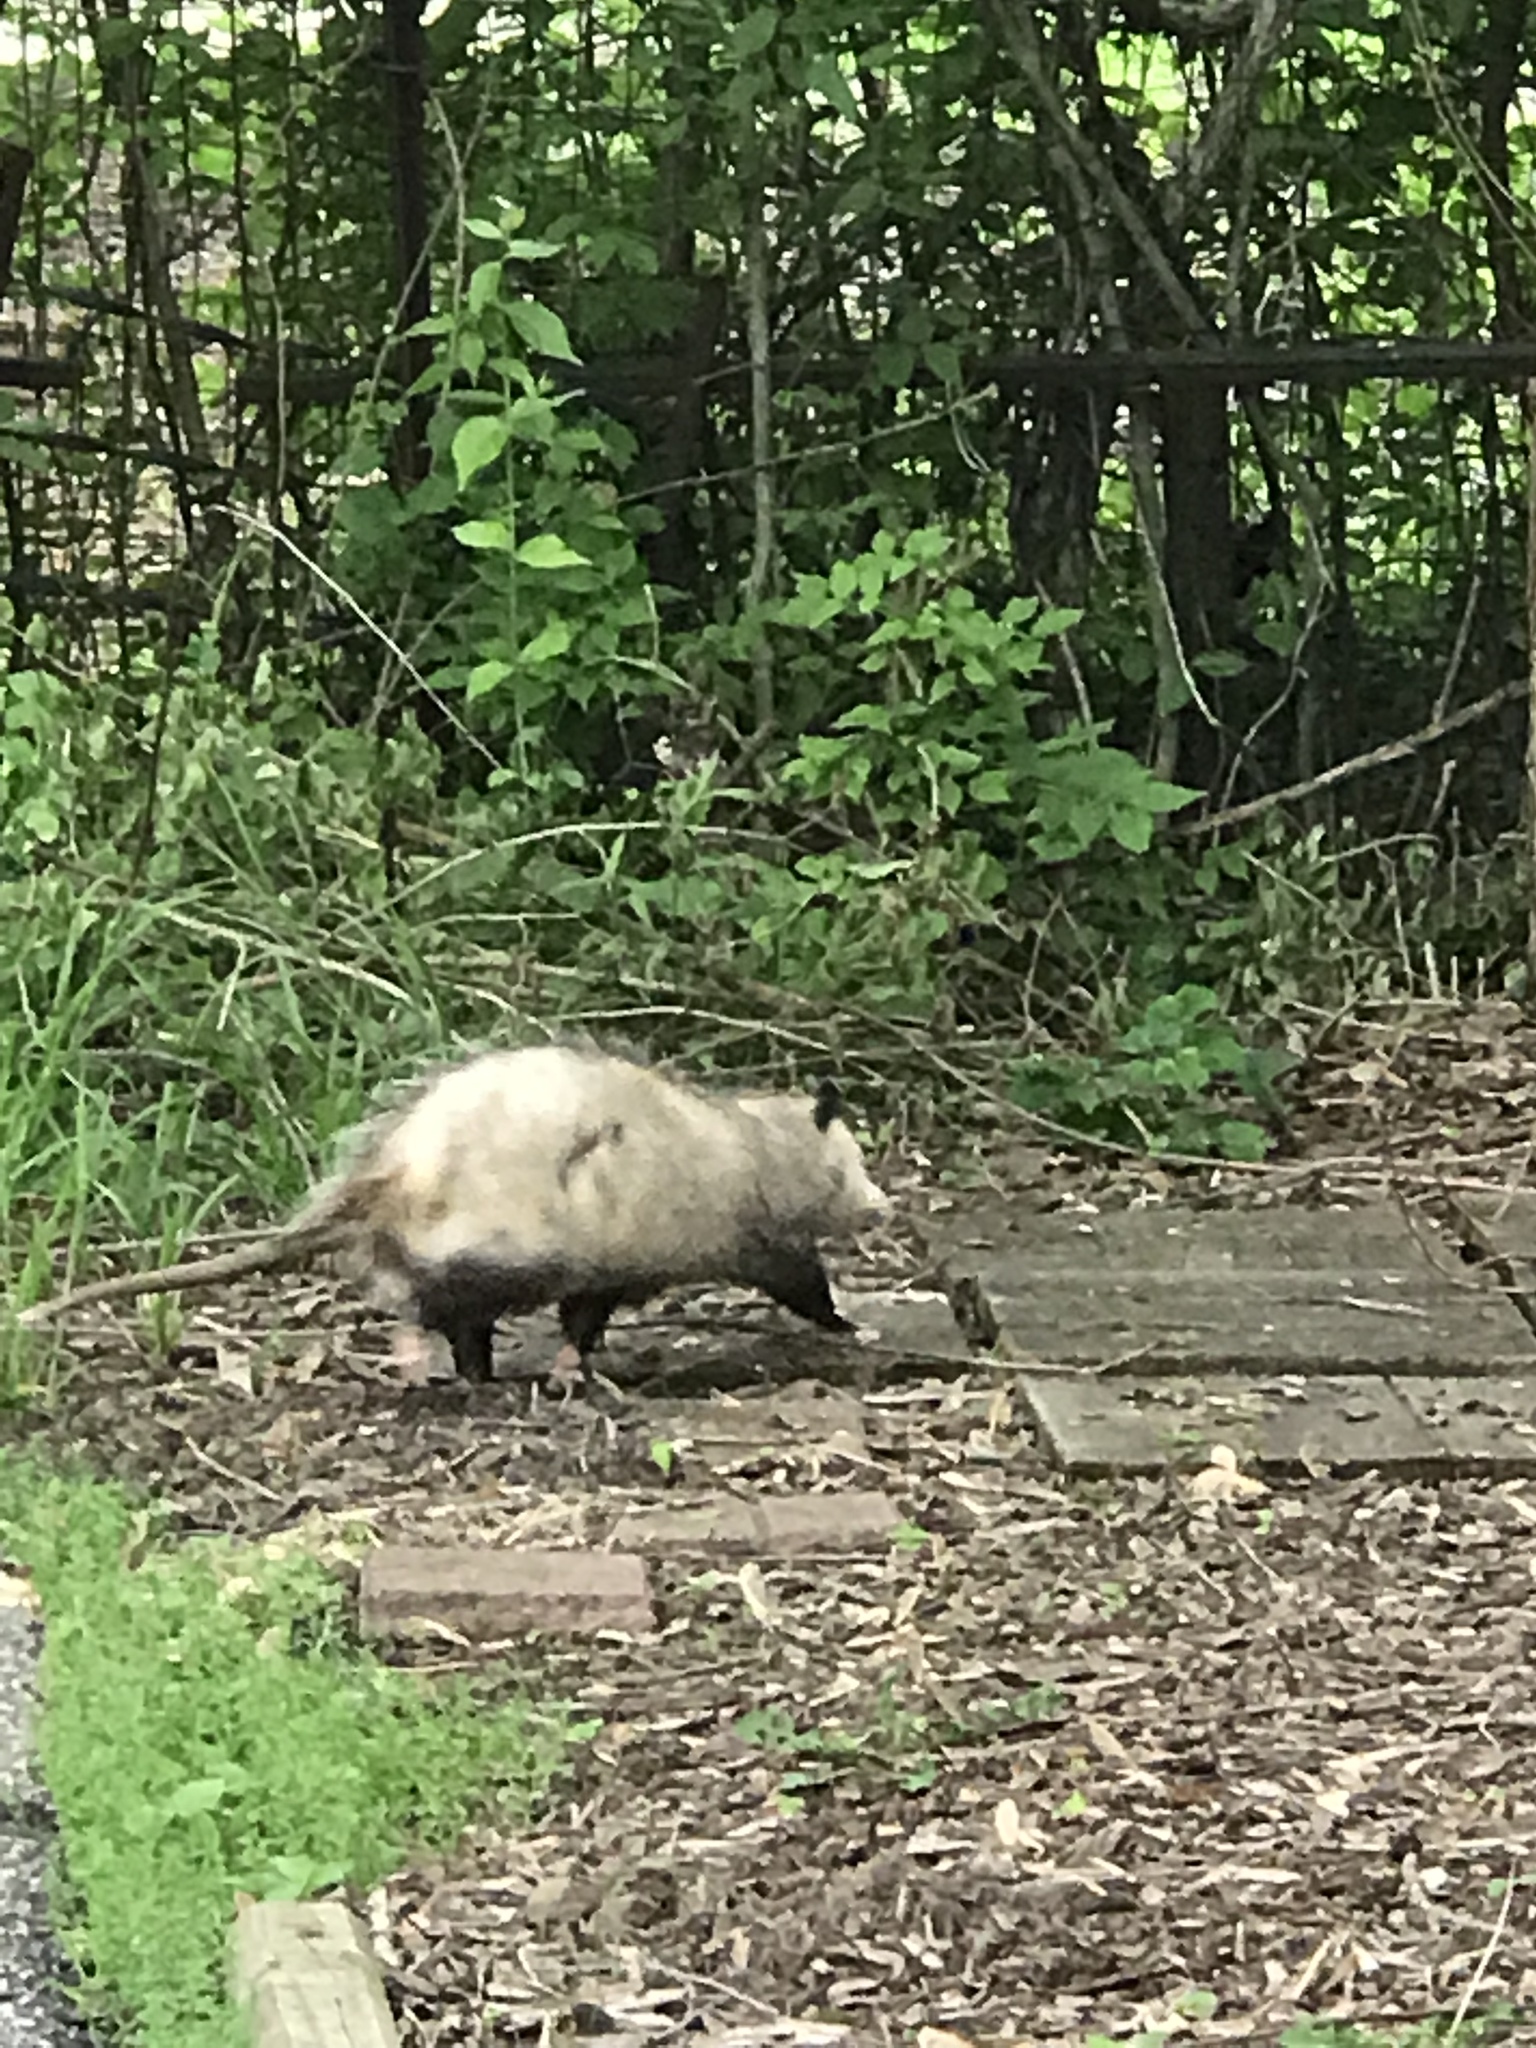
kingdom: Animalia
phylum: Chordata
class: Mammalia
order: Didelphimorphia
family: Didelphidae
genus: Didelphis
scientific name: Didelphis virginiana
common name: Virginia opossum
